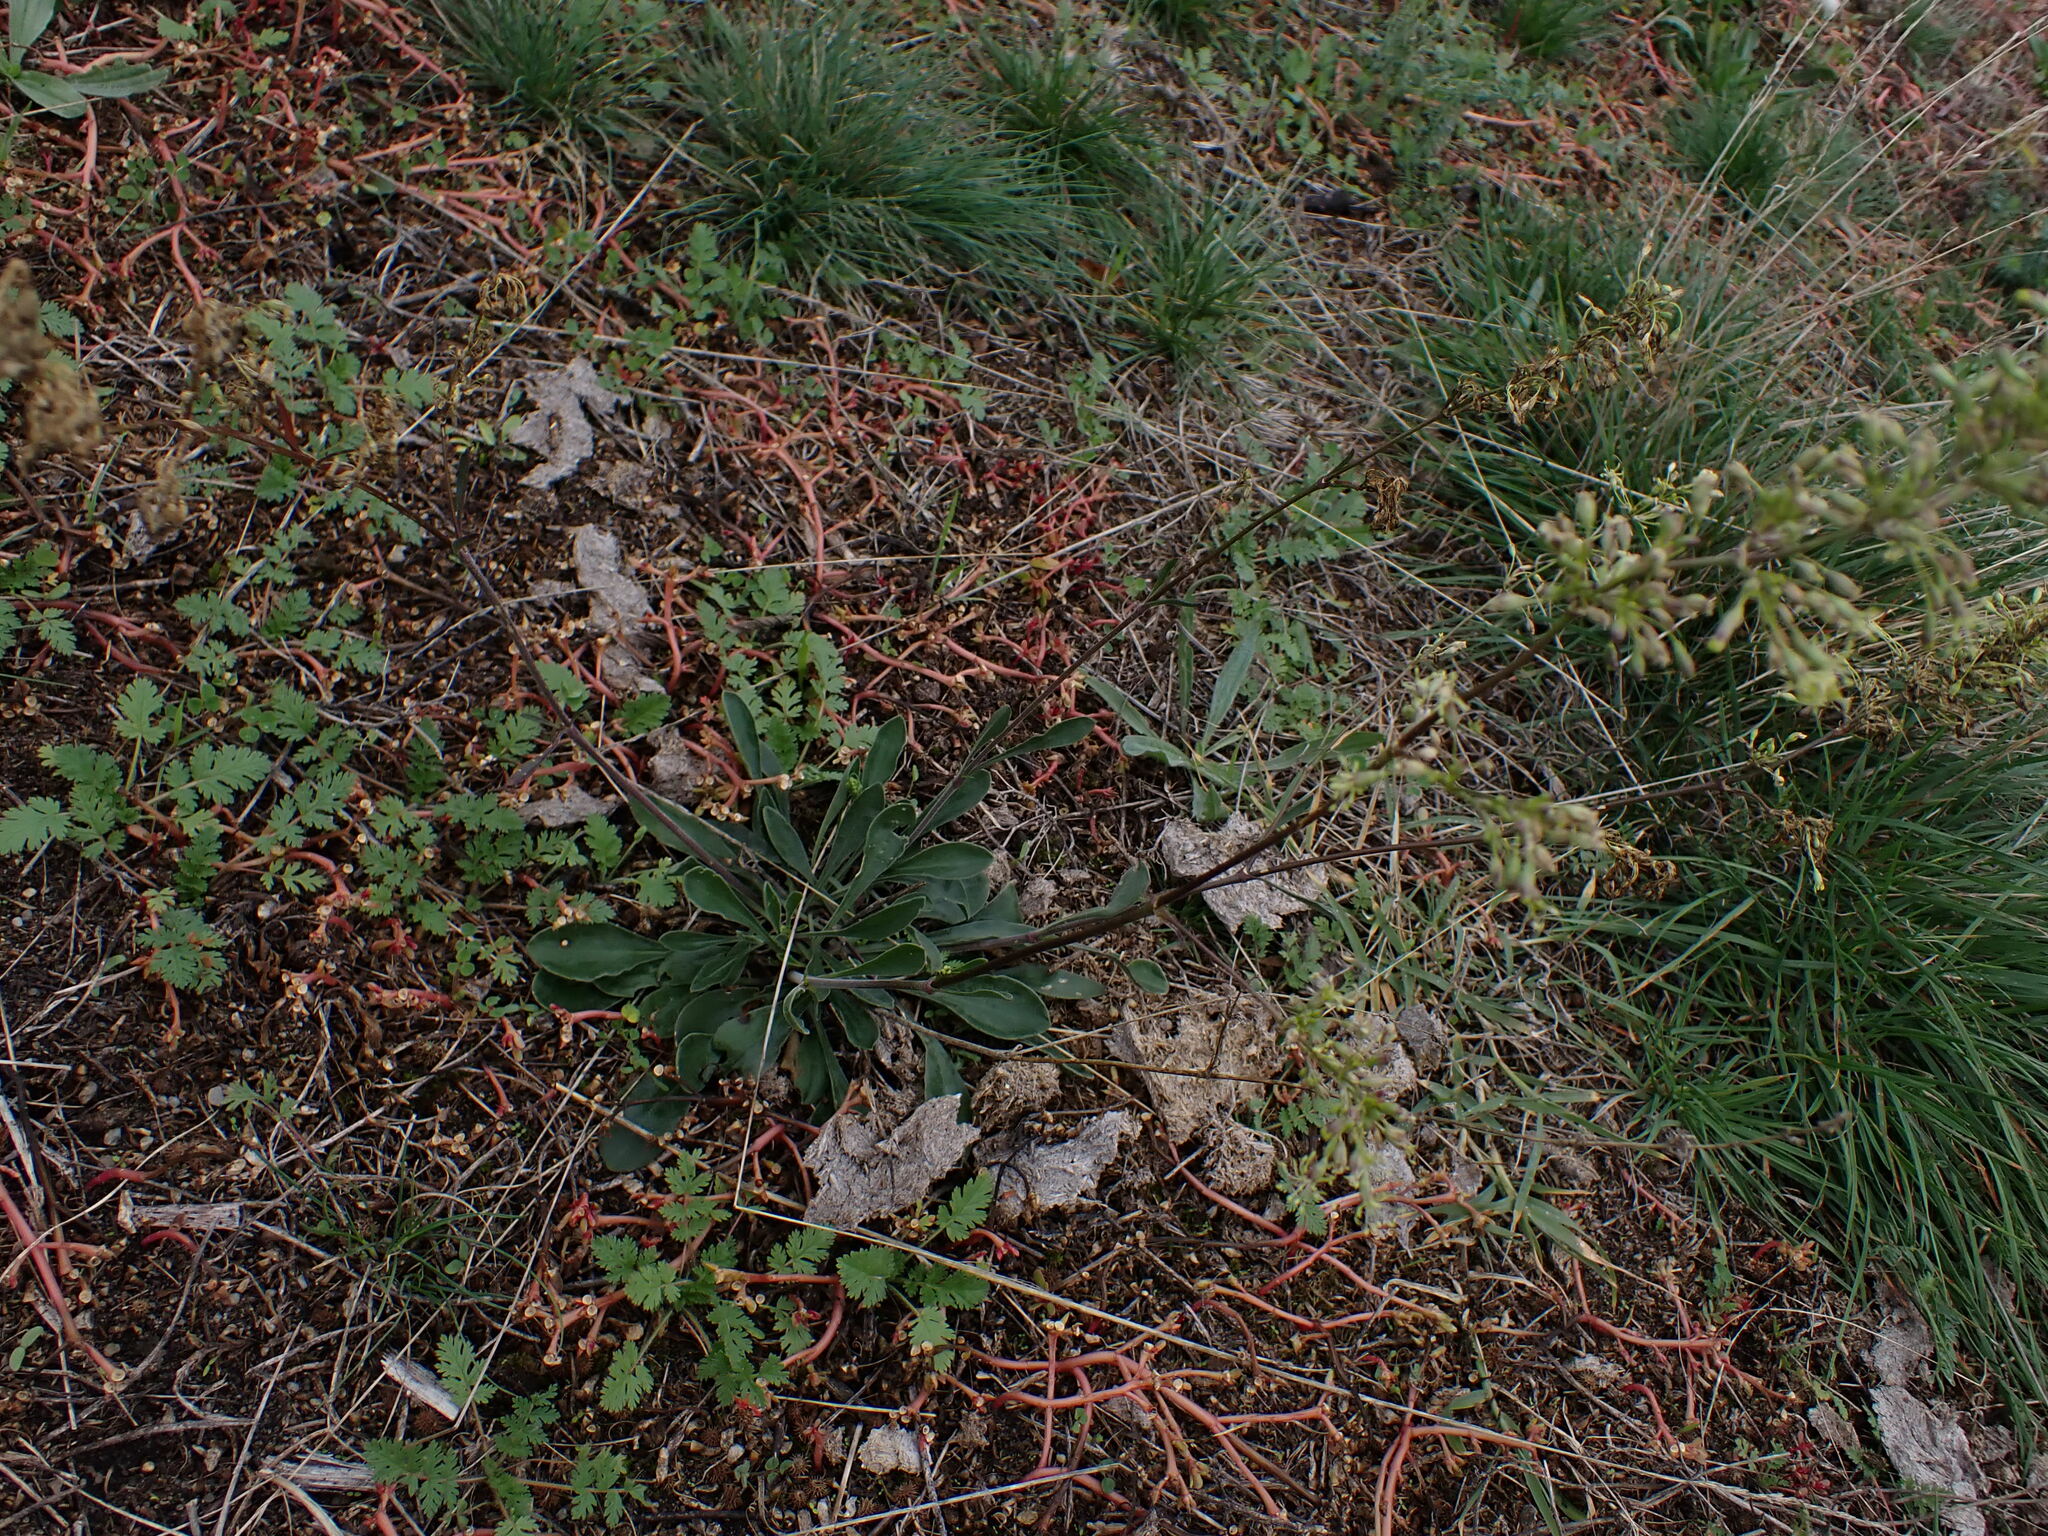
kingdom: Plantae
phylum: Tracheophyta
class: Magnoliopsida
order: Caryophyllales
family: Caryophyllaceae
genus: Silene
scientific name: Silene otites
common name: Spanish catchfly
